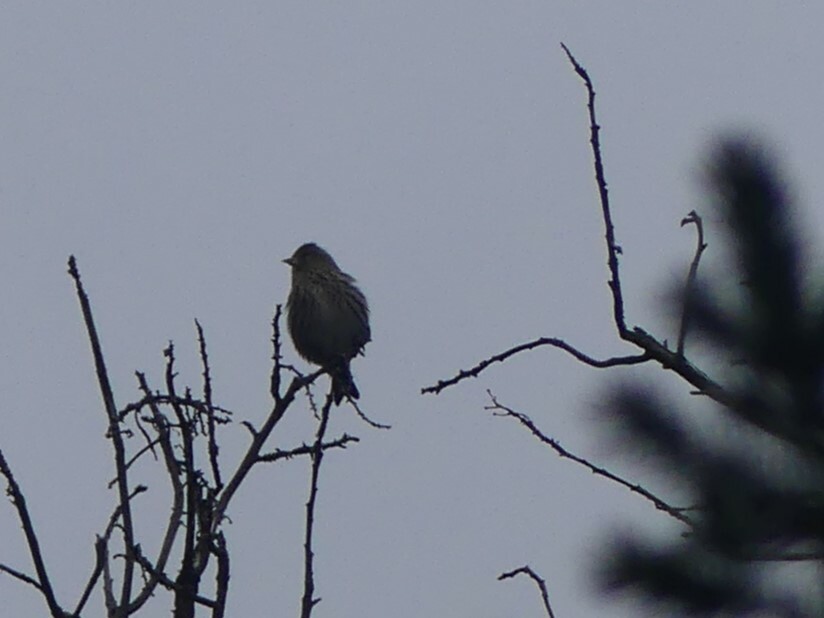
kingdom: Animalia
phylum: Chordata
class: Aves
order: Passeriformes
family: Fringillidae
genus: Spinus
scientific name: Spinus pinus
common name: Pine siskin
